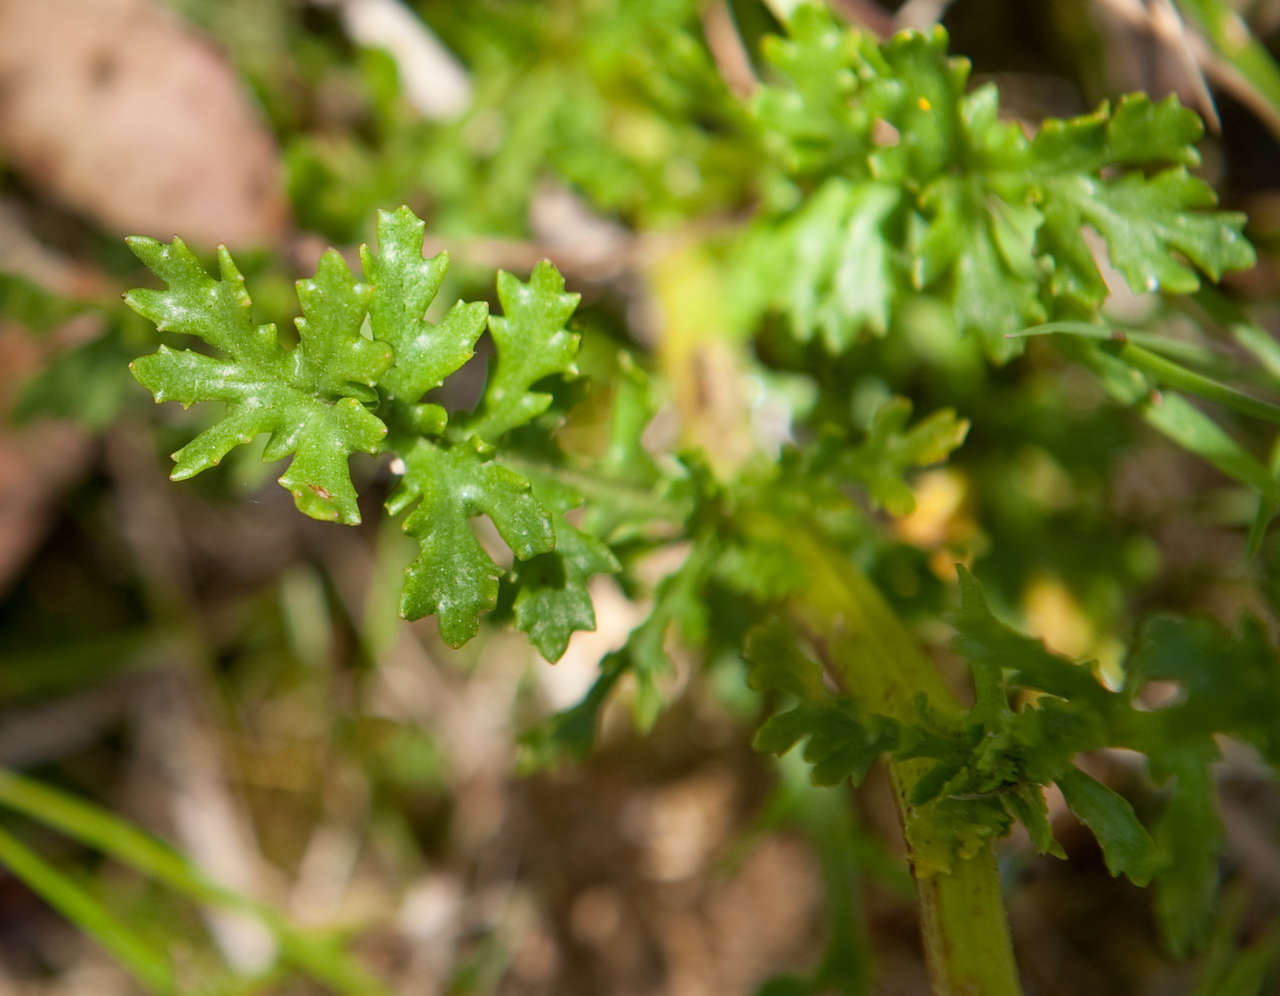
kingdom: Plantae
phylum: Tracheophyta
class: Magnoliopsida
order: Asterales
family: Asteraceae
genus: Senecio
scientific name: Senecio pinnatifolius
